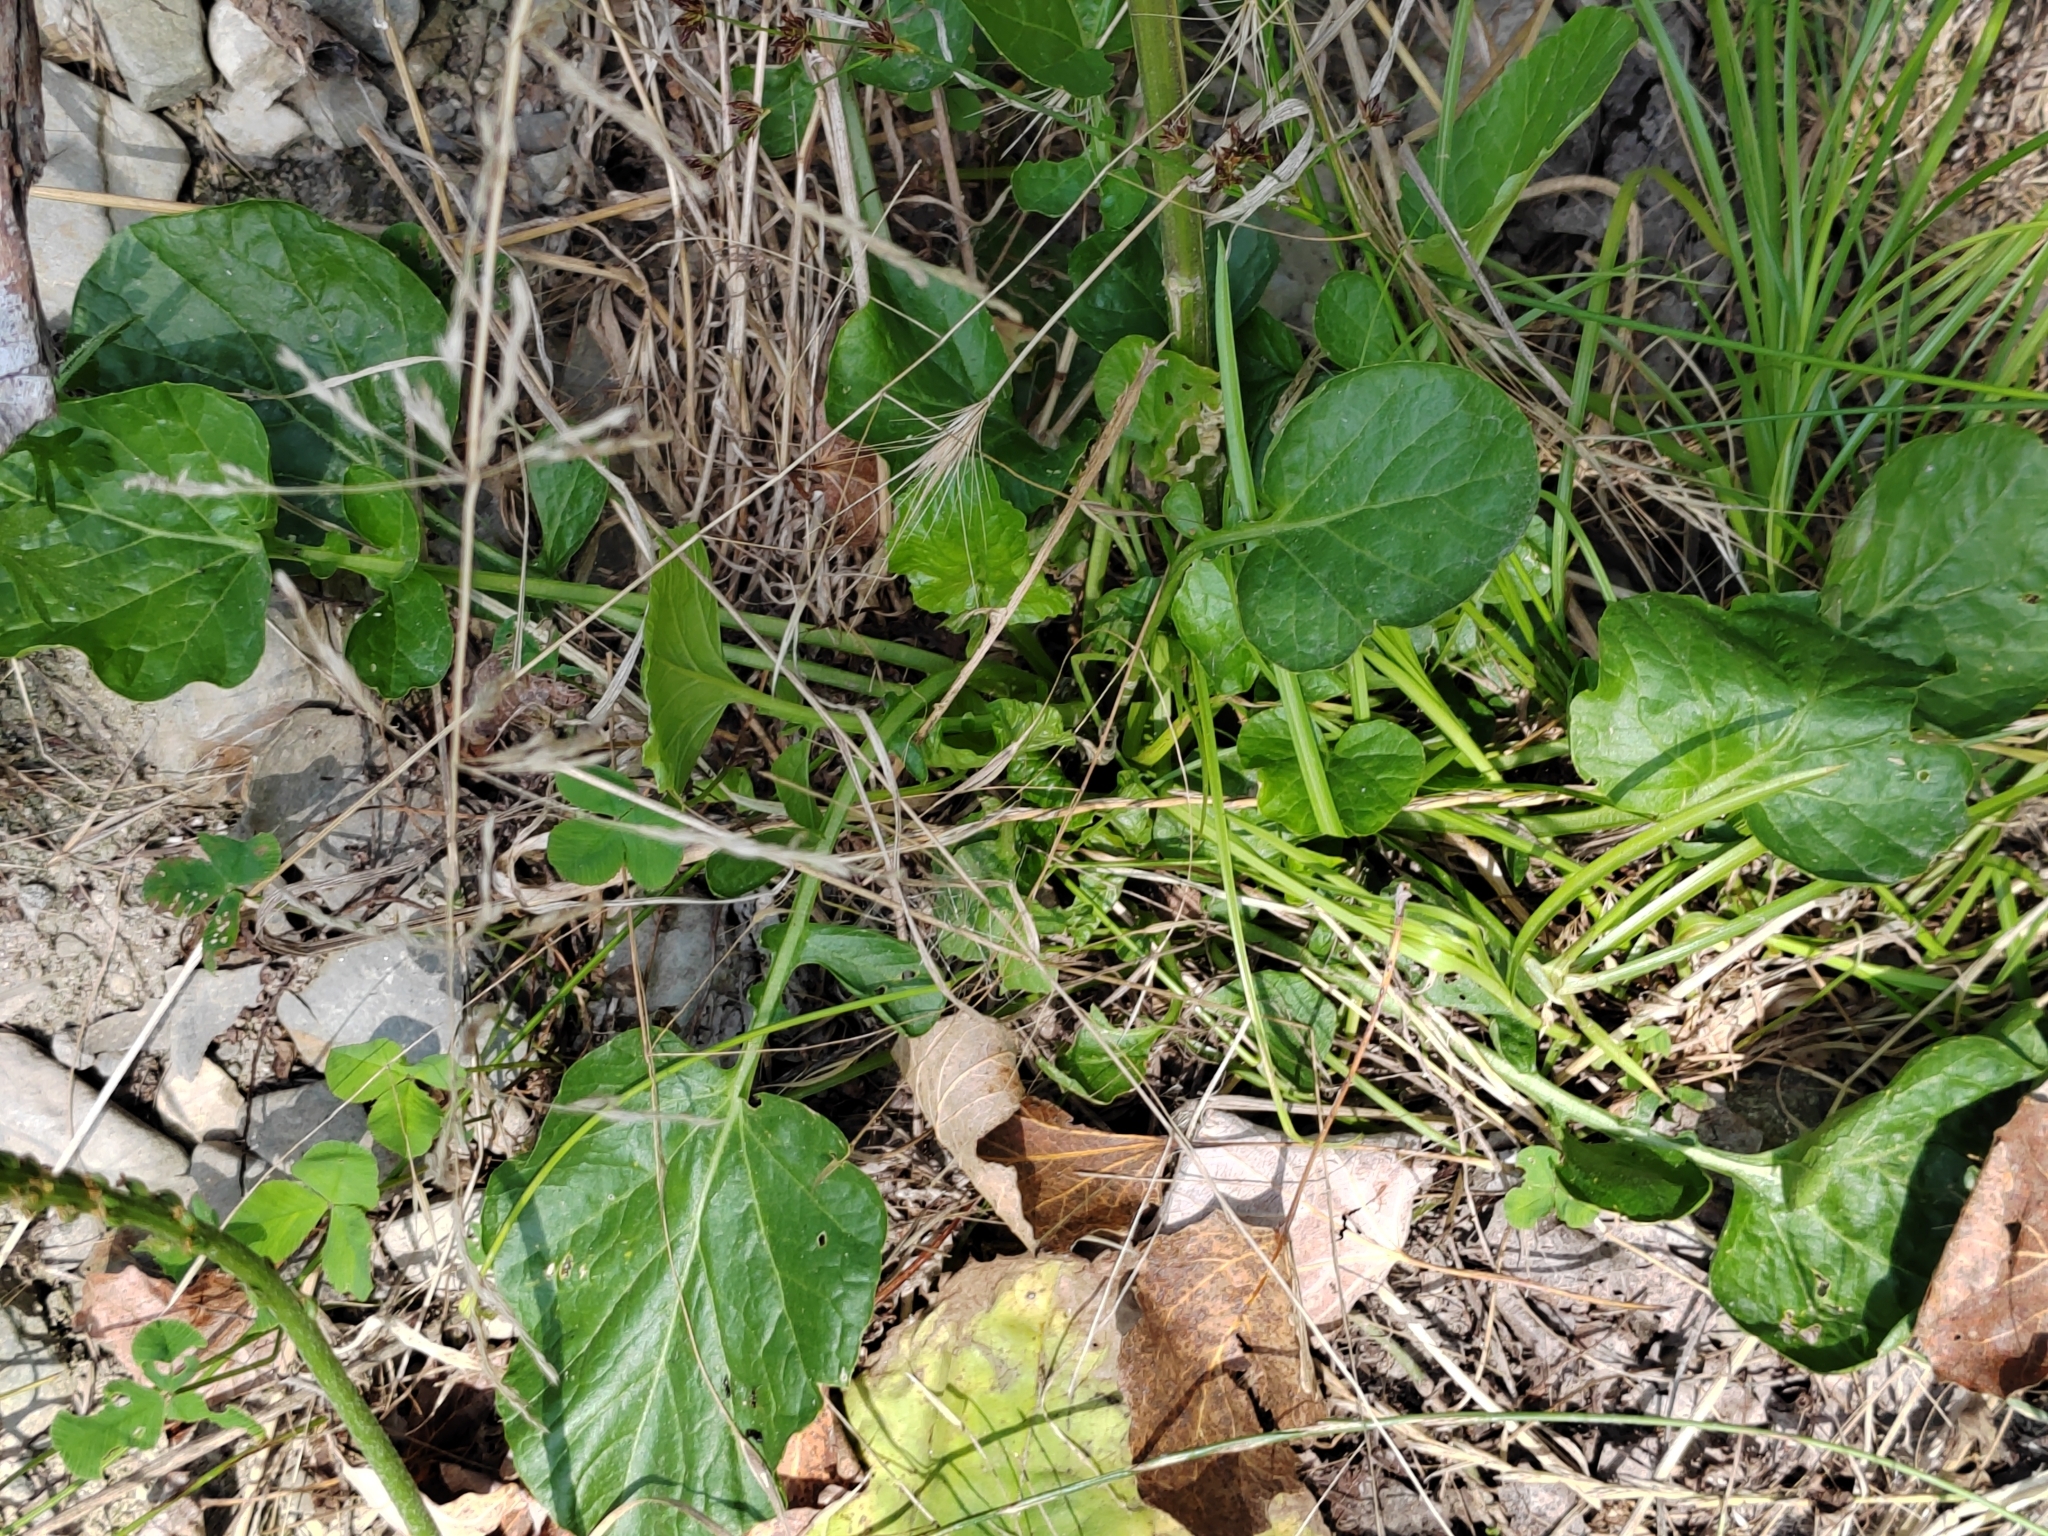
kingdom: Plantae
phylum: Tracheophyta
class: Magnoliopsida
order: Brassicales
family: Brassicaceae
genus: Barbarea
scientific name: Barbarea vulgaris
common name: Cressy-greens
